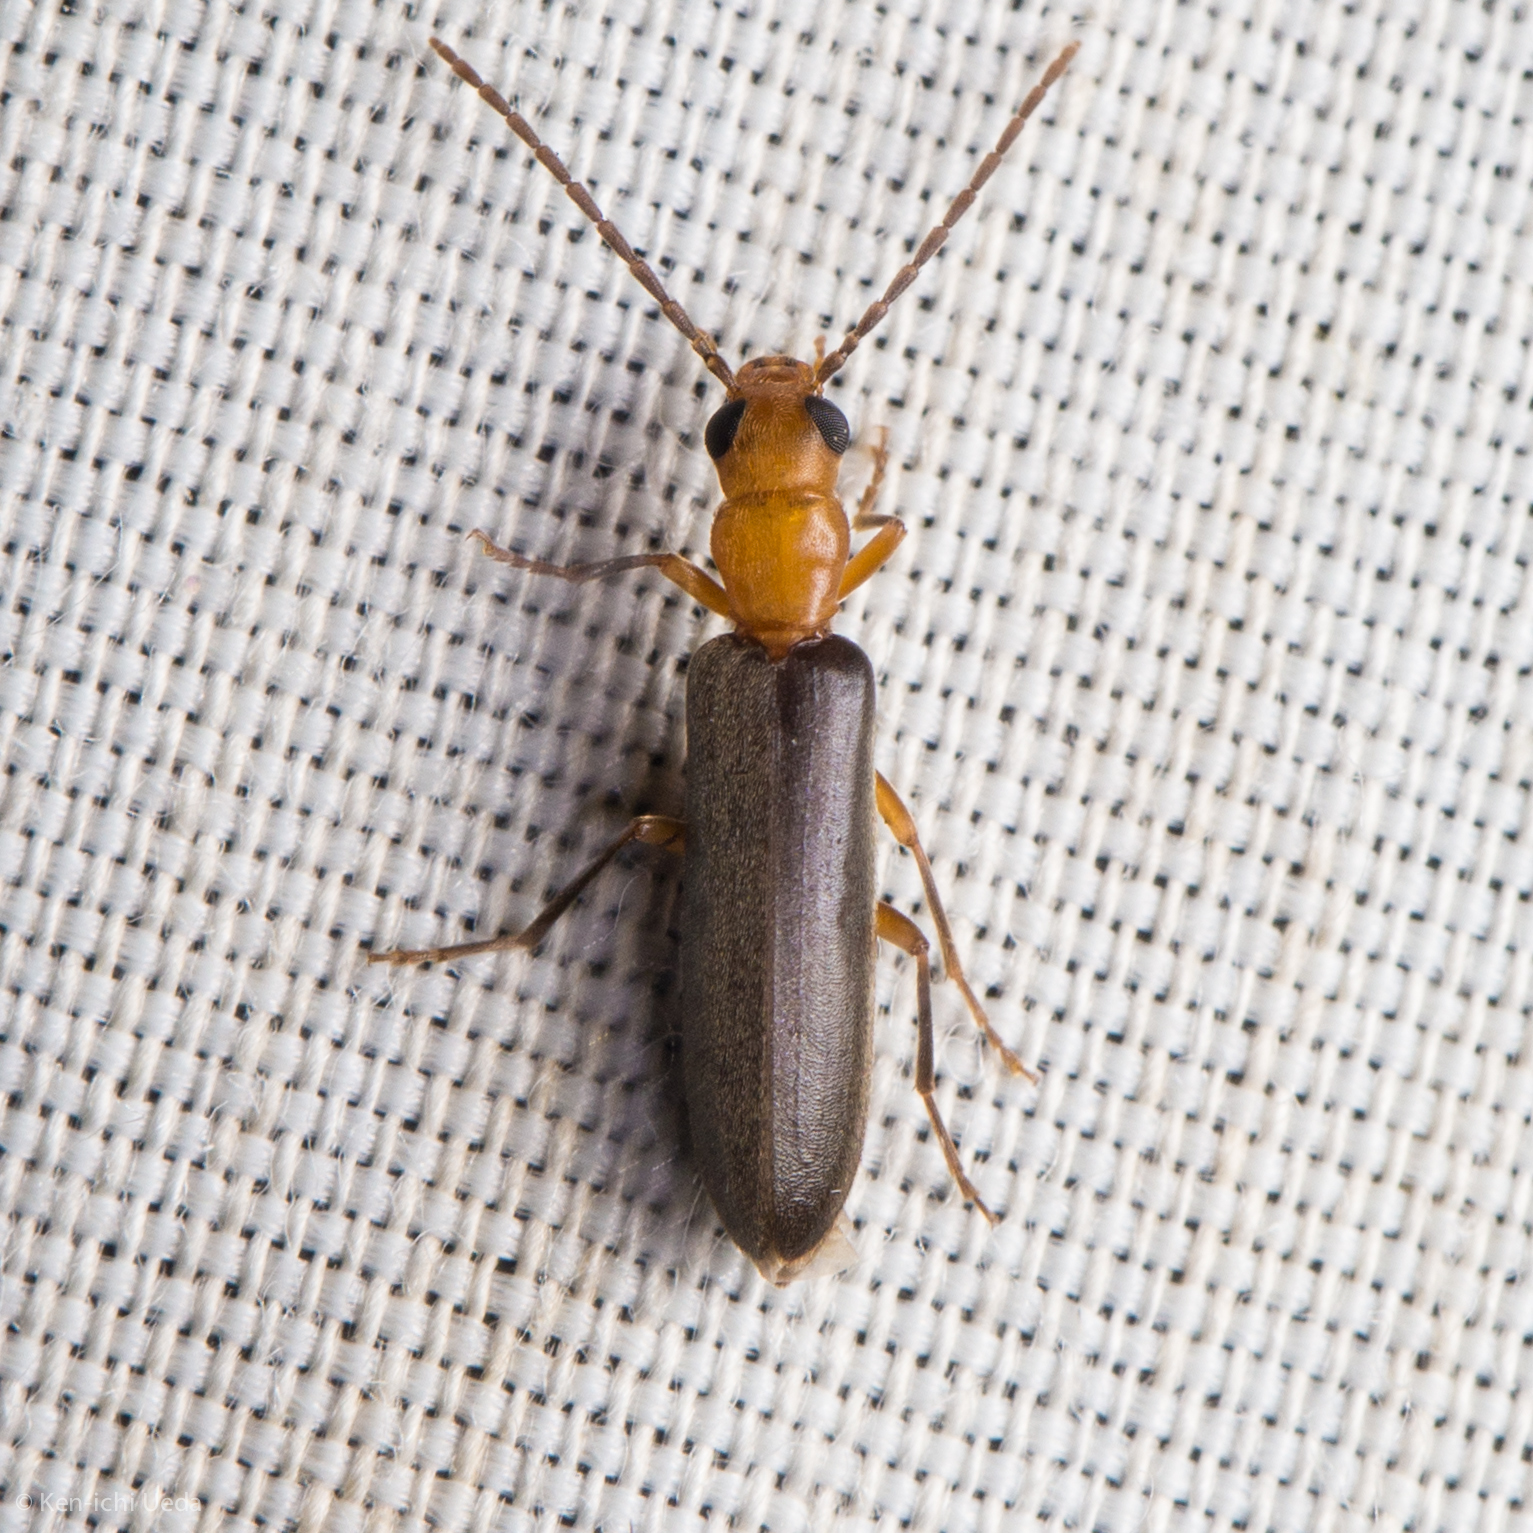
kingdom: Animalia
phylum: Arthropoda
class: Insecta
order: Coleoptera
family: Oedemeridae
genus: Xanthochroina
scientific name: Xanthochroina bicolor
